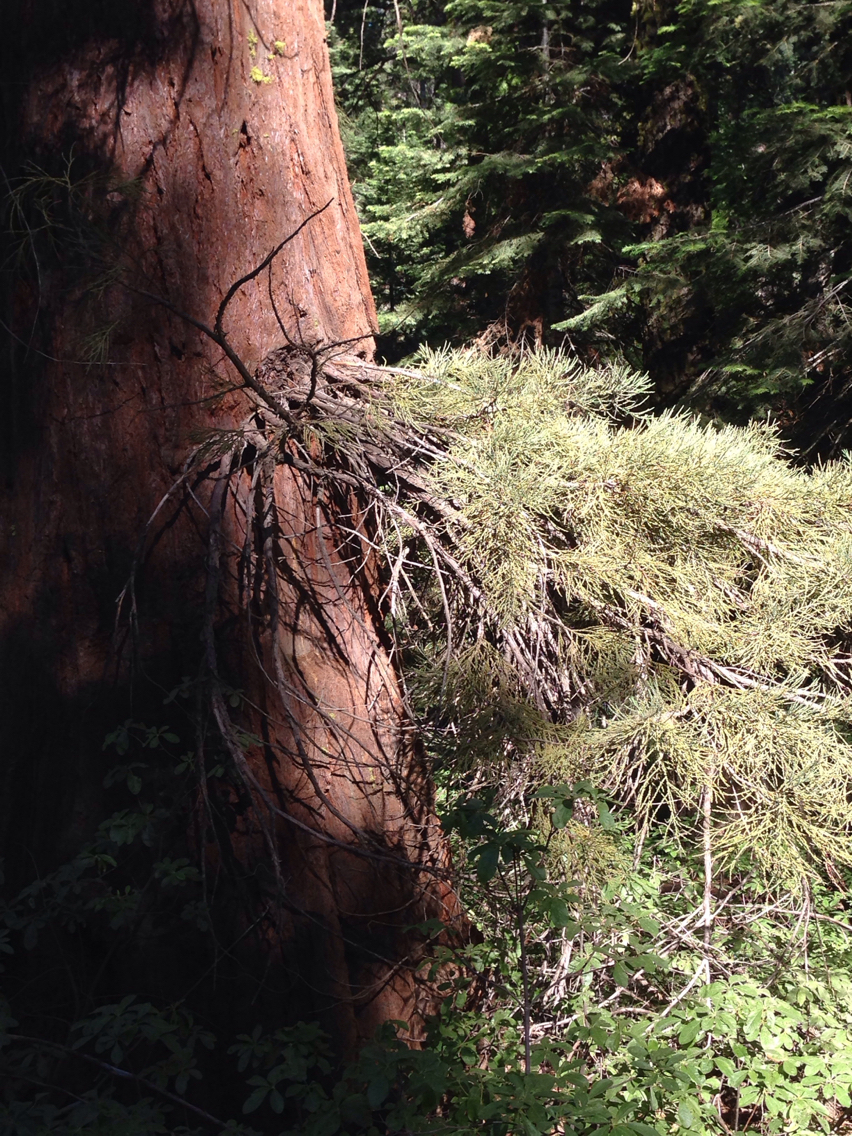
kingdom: Plantae
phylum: Tracheophyta
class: Pinopsida
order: Pinales
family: Cupressaceae
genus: Sequoiadendron
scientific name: Sequoiadendron giganteum
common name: Wellingtonia
